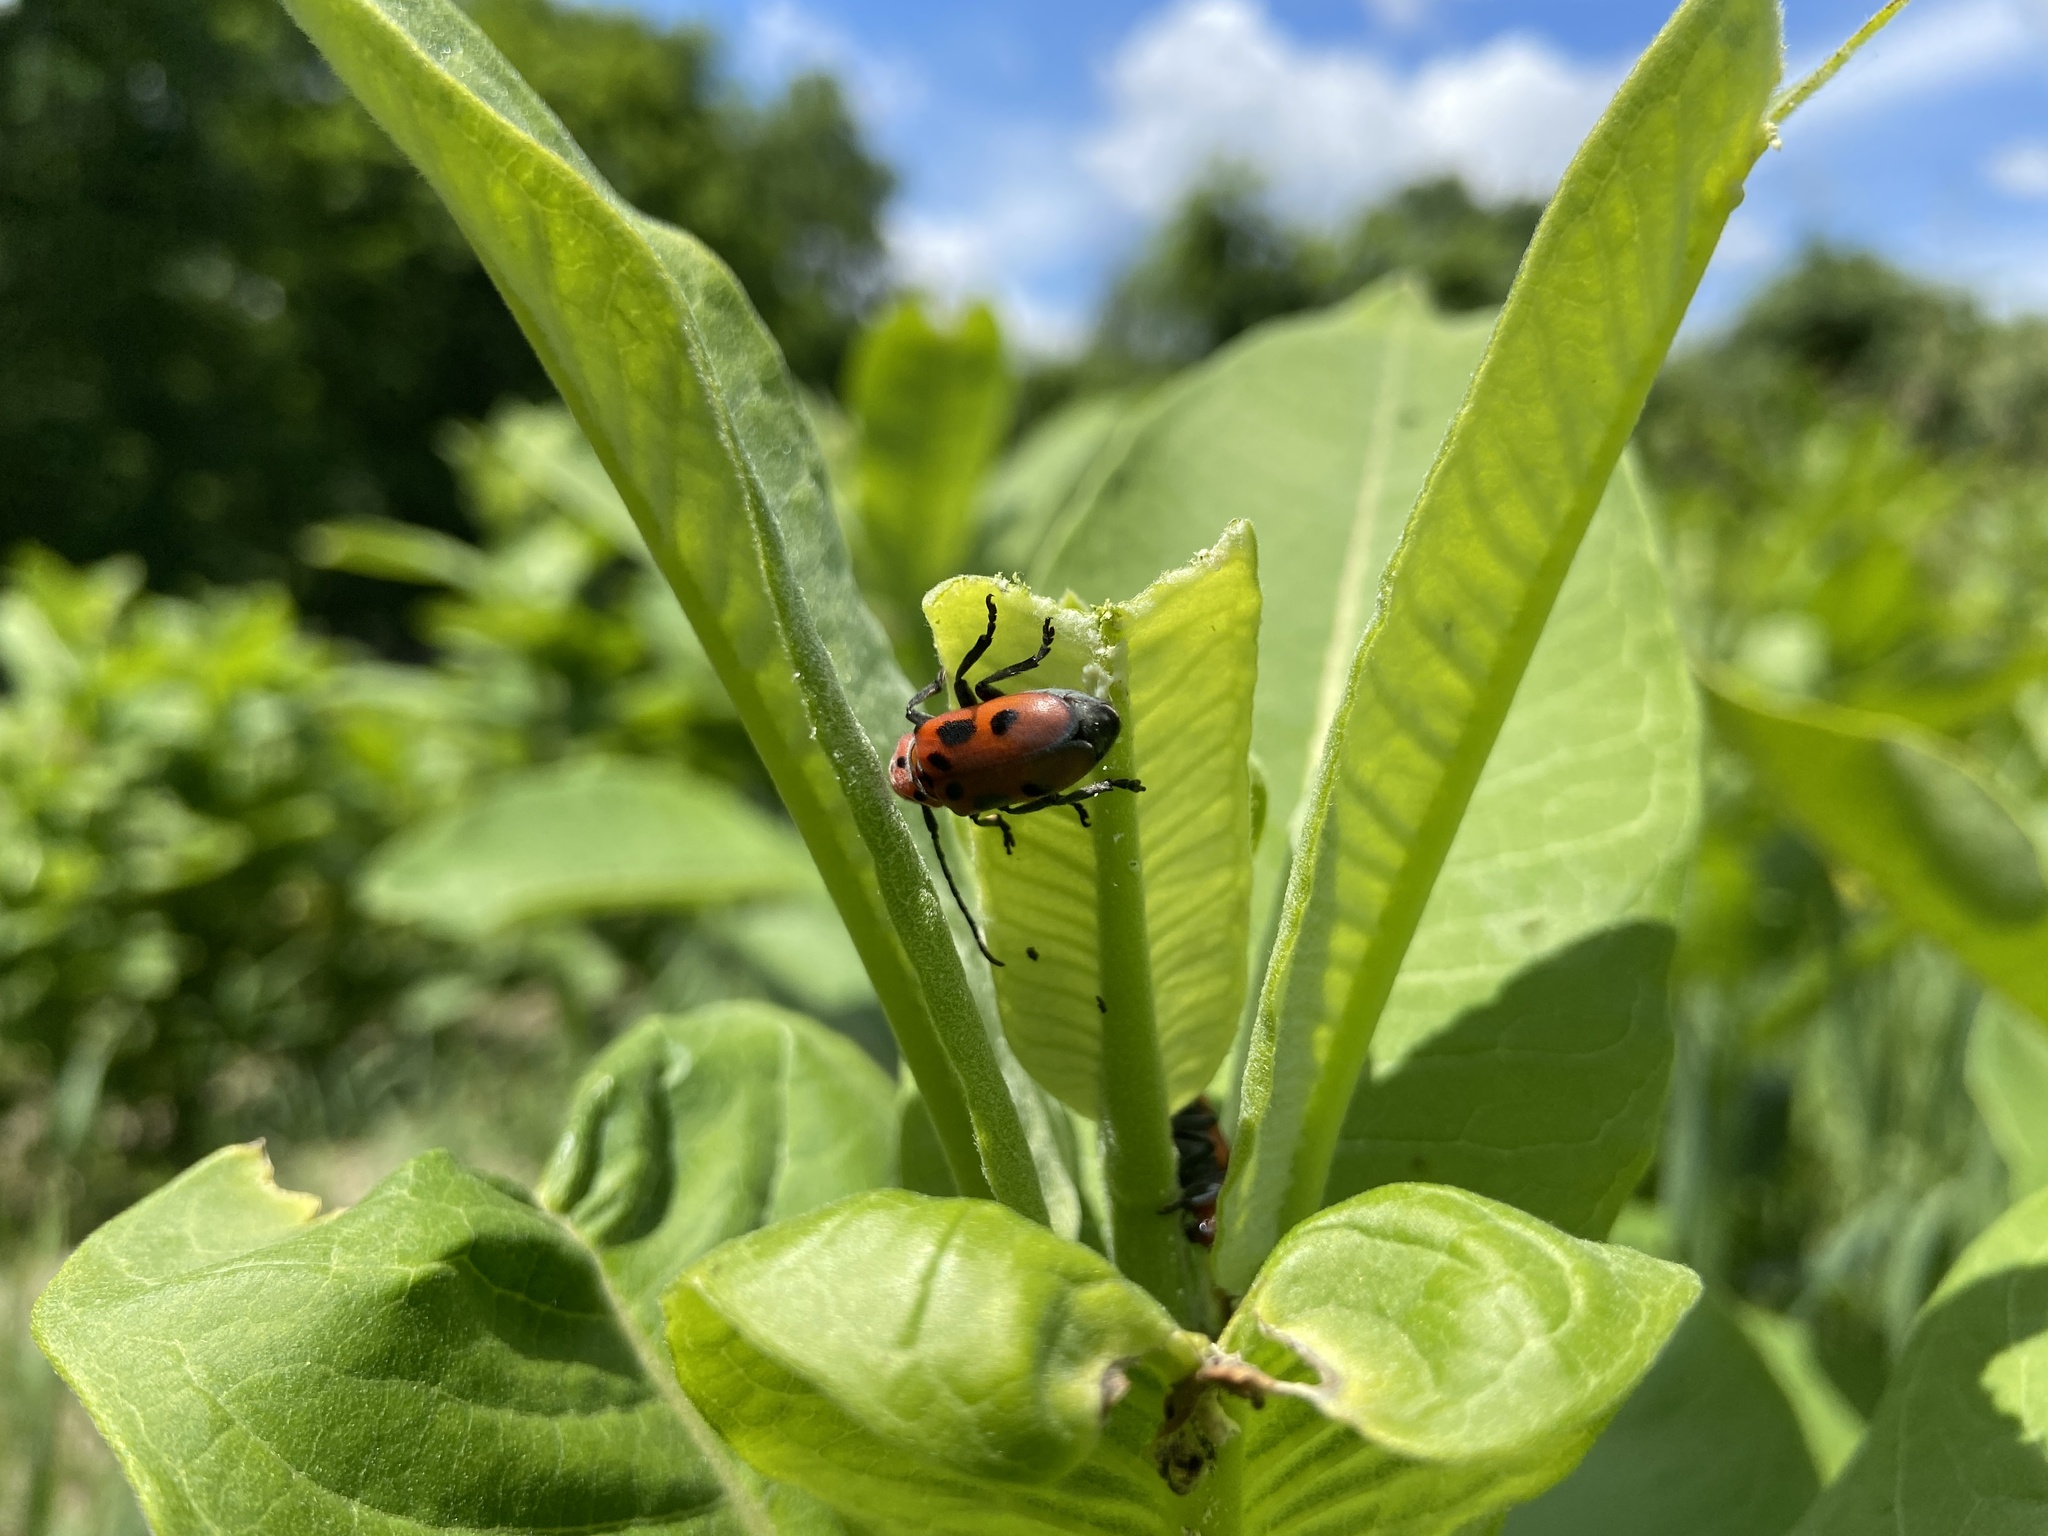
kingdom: Animalia
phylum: Arthropoda
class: Insecta
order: Coleoptera
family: Cerambycidae
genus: Tetraopes
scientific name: Tetraopes tetrophthalmus
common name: Red milkweed beetle
